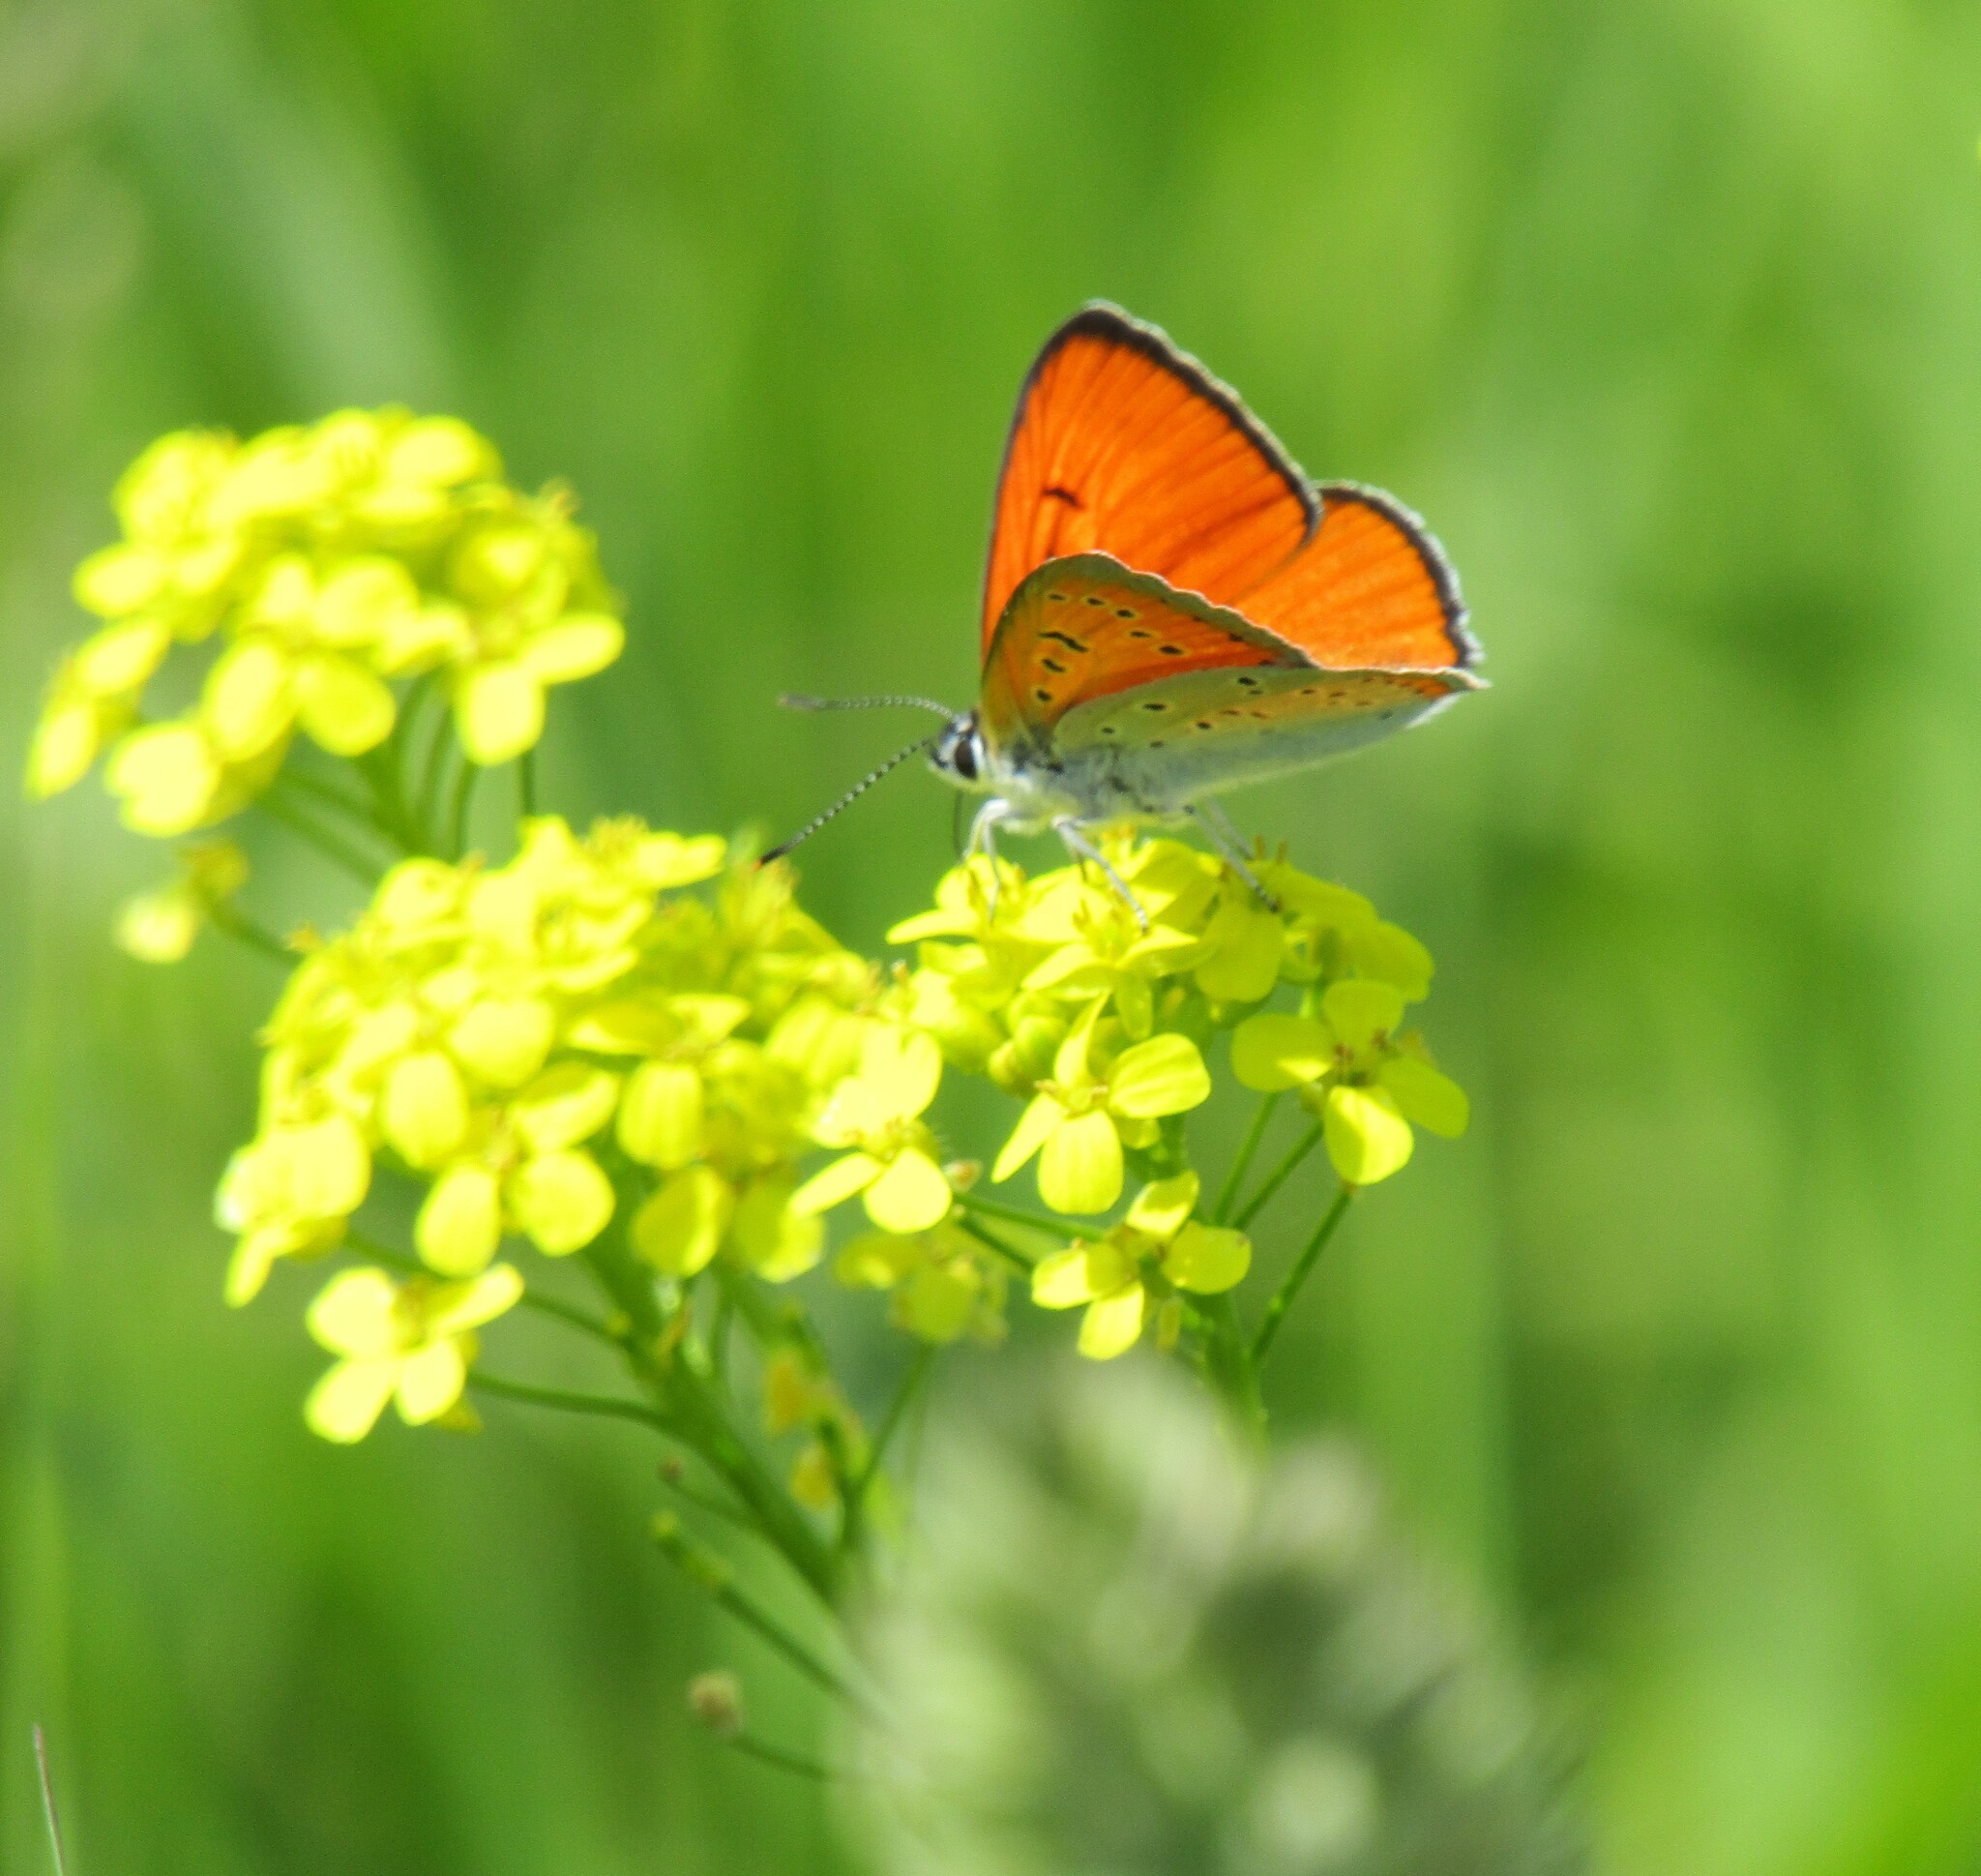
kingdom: Animalia
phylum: Arthropoda
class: Insecta
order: Lepidoptera
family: Lycaenidae
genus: Lycaena
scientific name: Lycaena dispar
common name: Large copper
